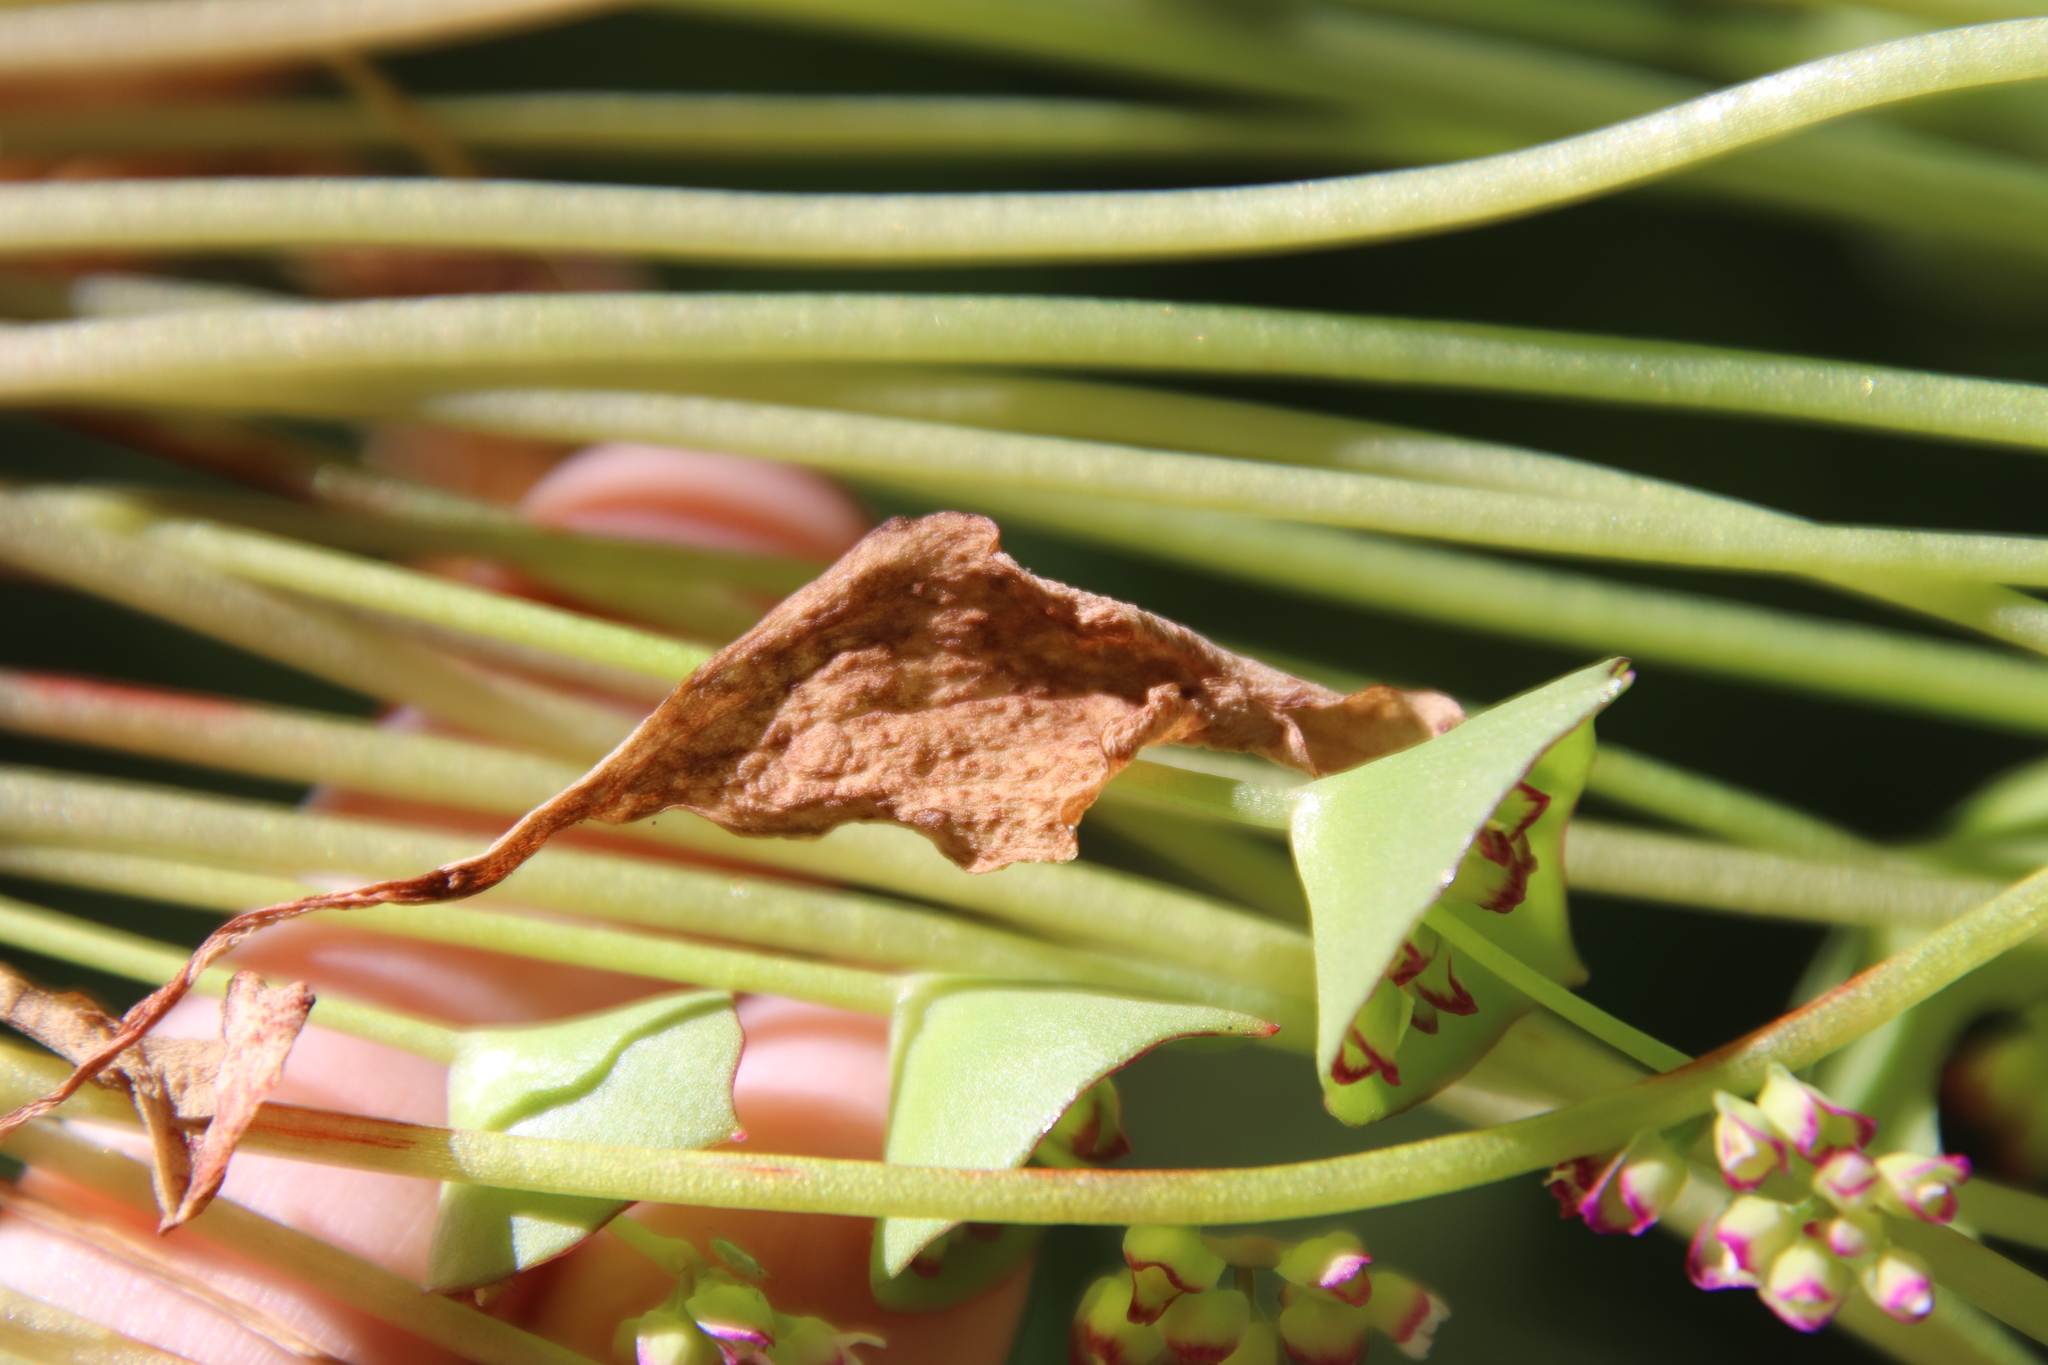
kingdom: Plantae
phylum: Tracheophyta
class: Magnoliopsida
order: Caryophyllales
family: Montiaceae
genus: Claytonia
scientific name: Claytonia perfoliata
